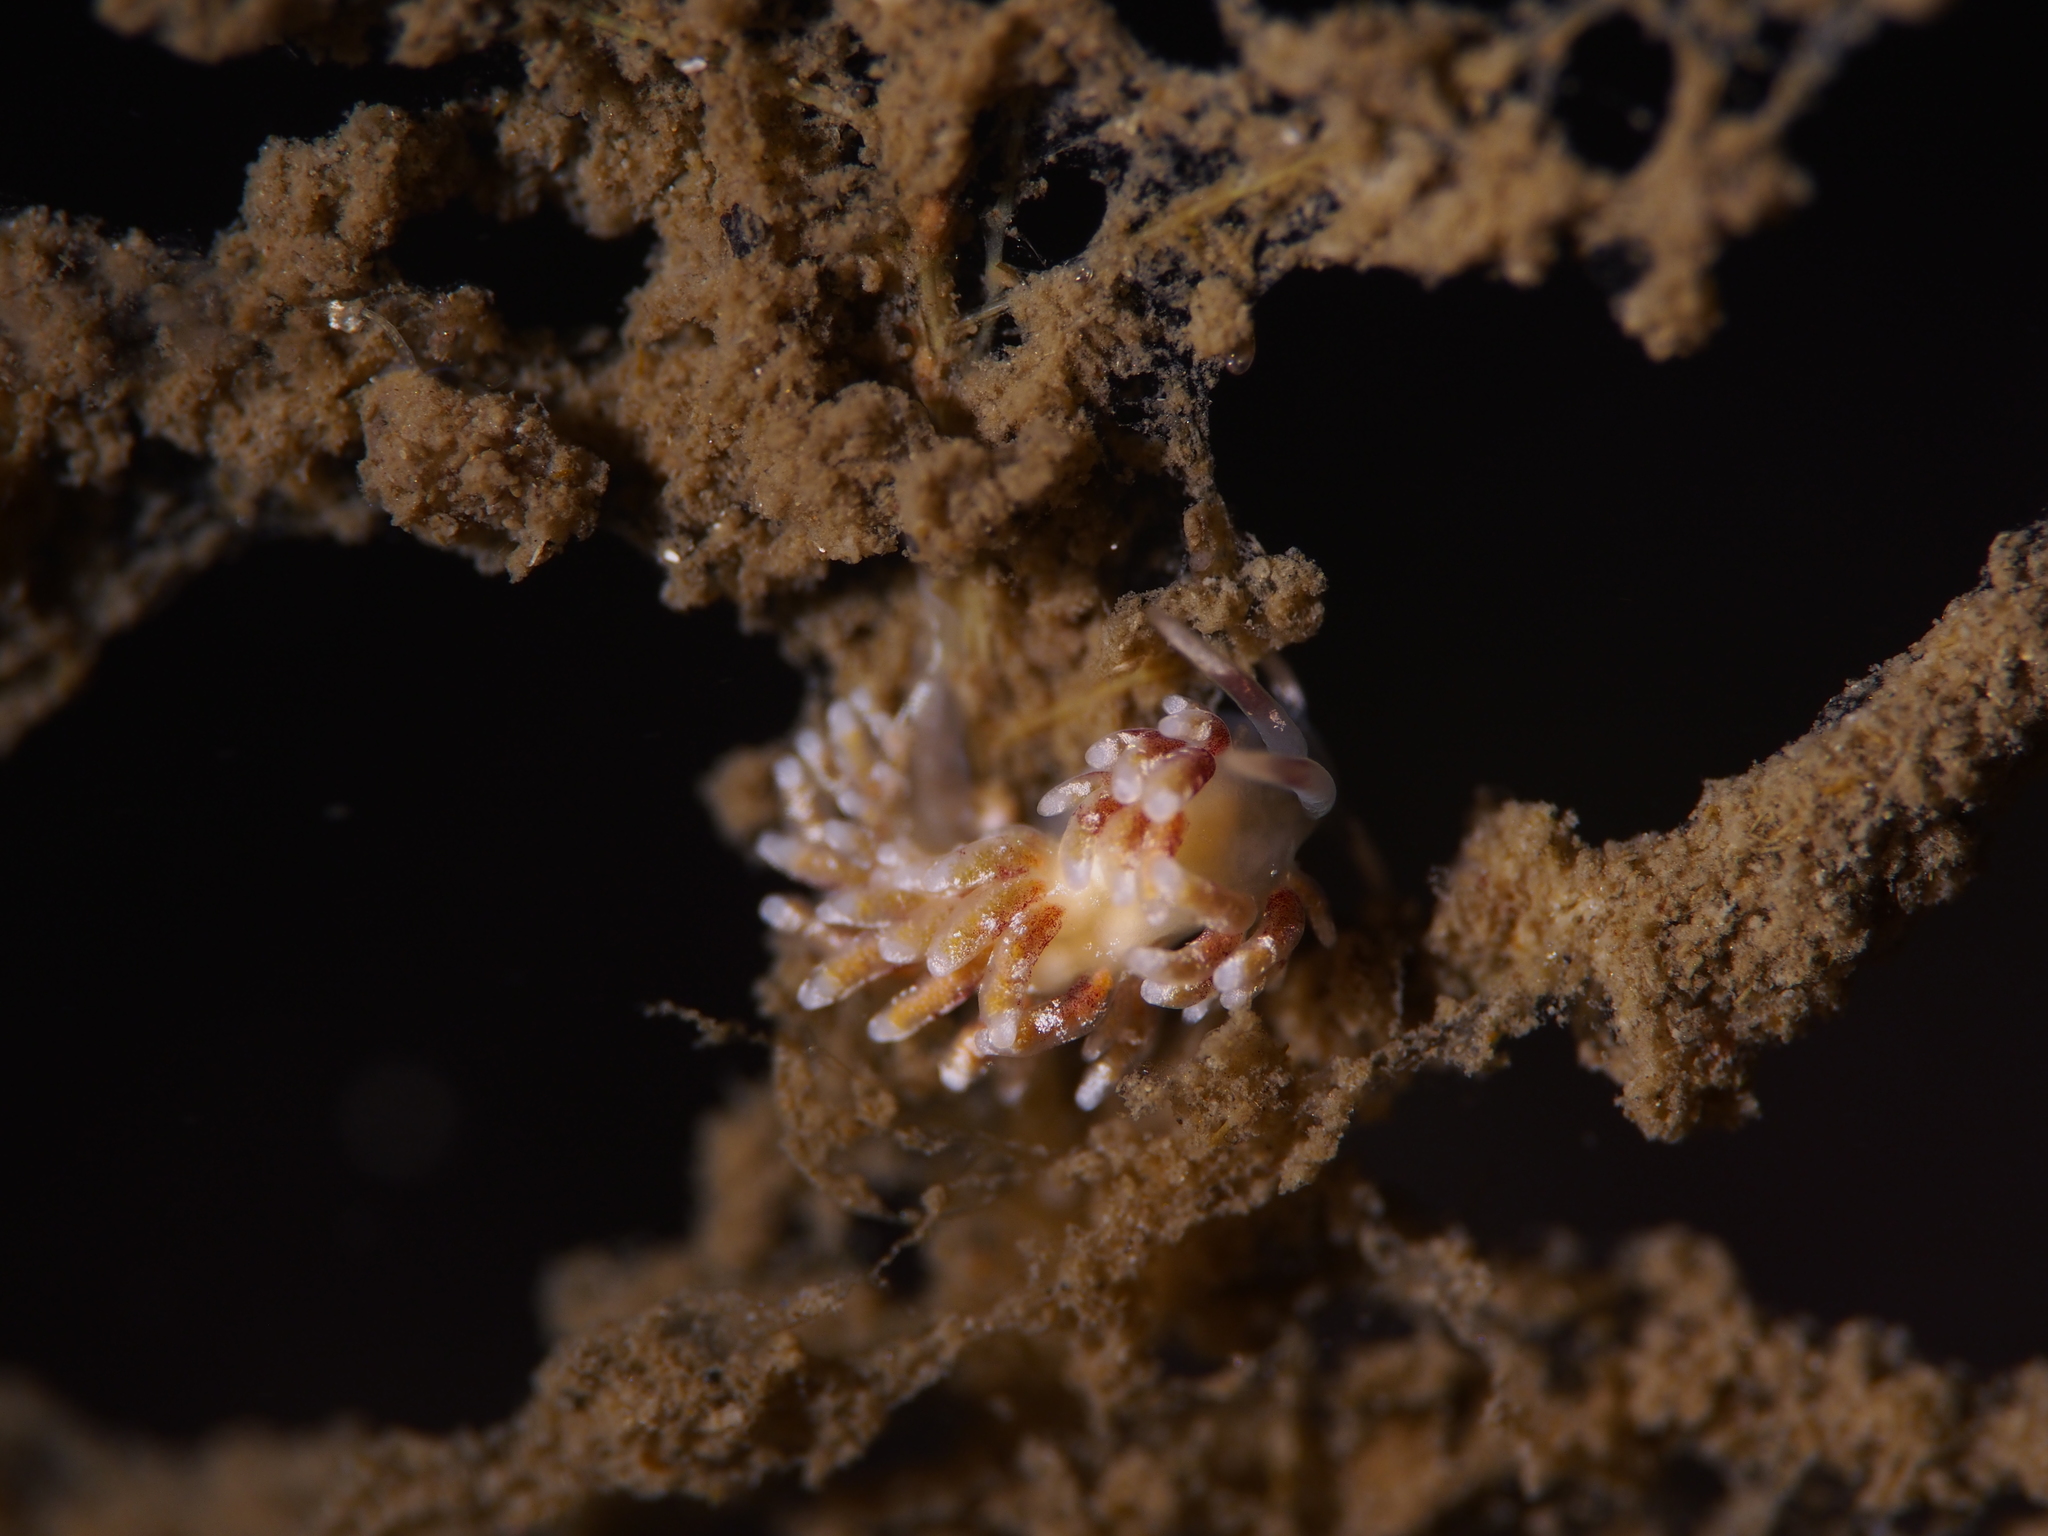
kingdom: Animalia
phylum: Mollusca
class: Gastropoda
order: Nudibranchia
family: Trinchesiidae
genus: Rubramoena
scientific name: Rubramoena rubescens
